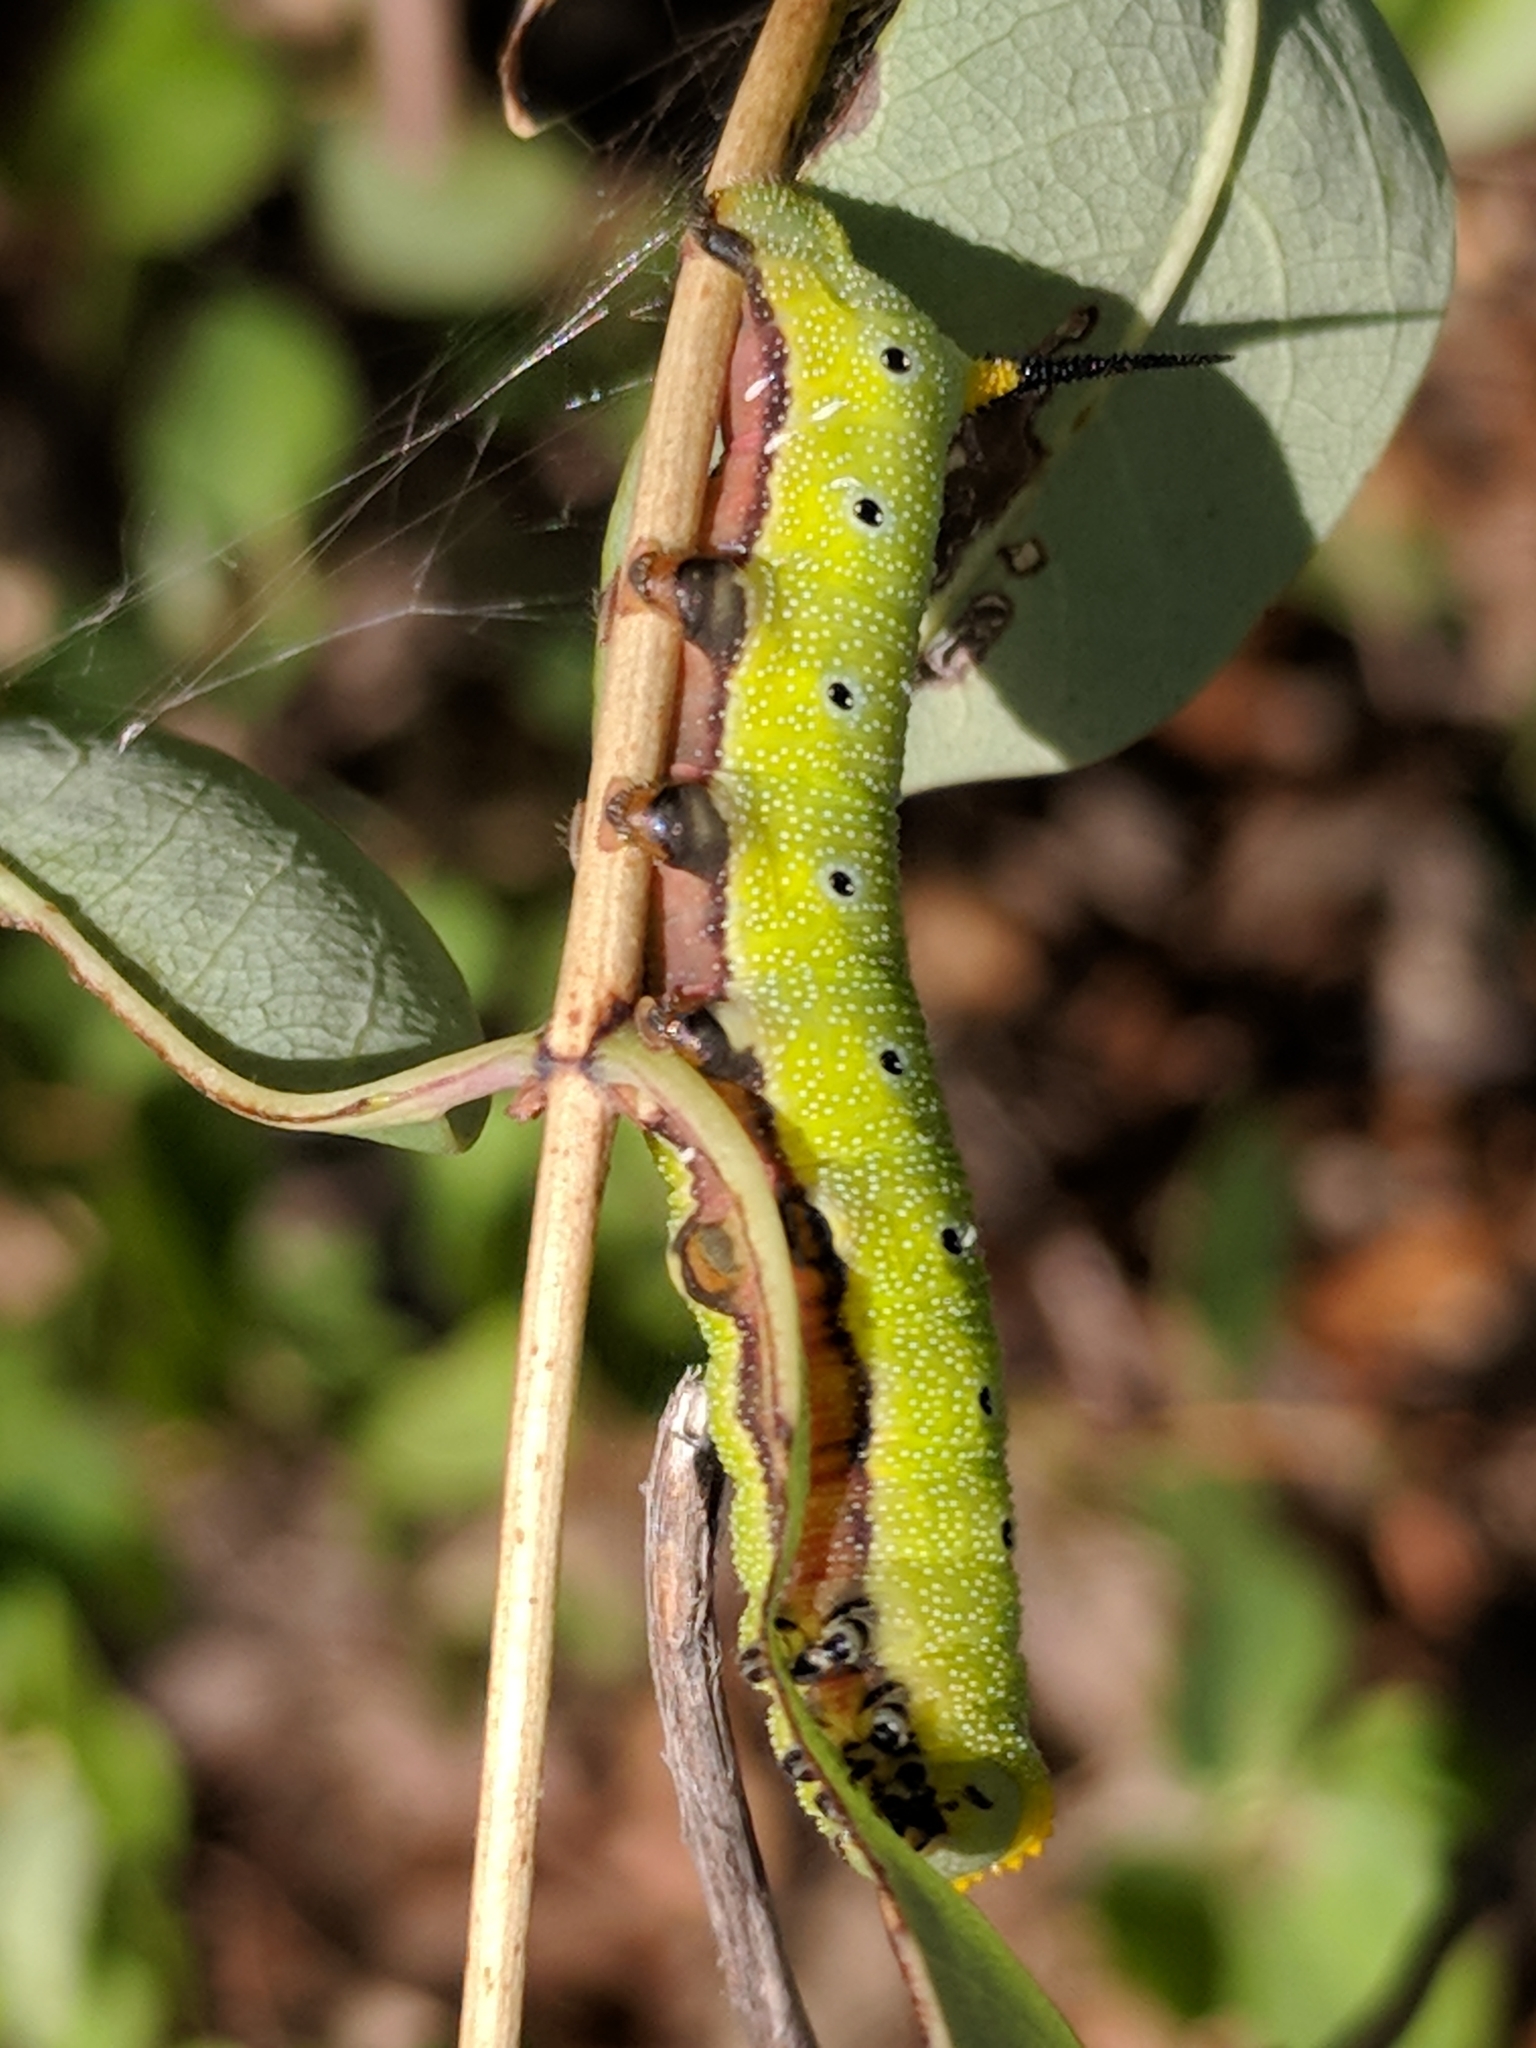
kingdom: Animalia
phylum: Arthropoda
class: Insecta
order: Lepidoptera
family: Sphingidae
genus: Hemaris
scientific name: Hemaris diffinis
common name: Bumblebee moth
